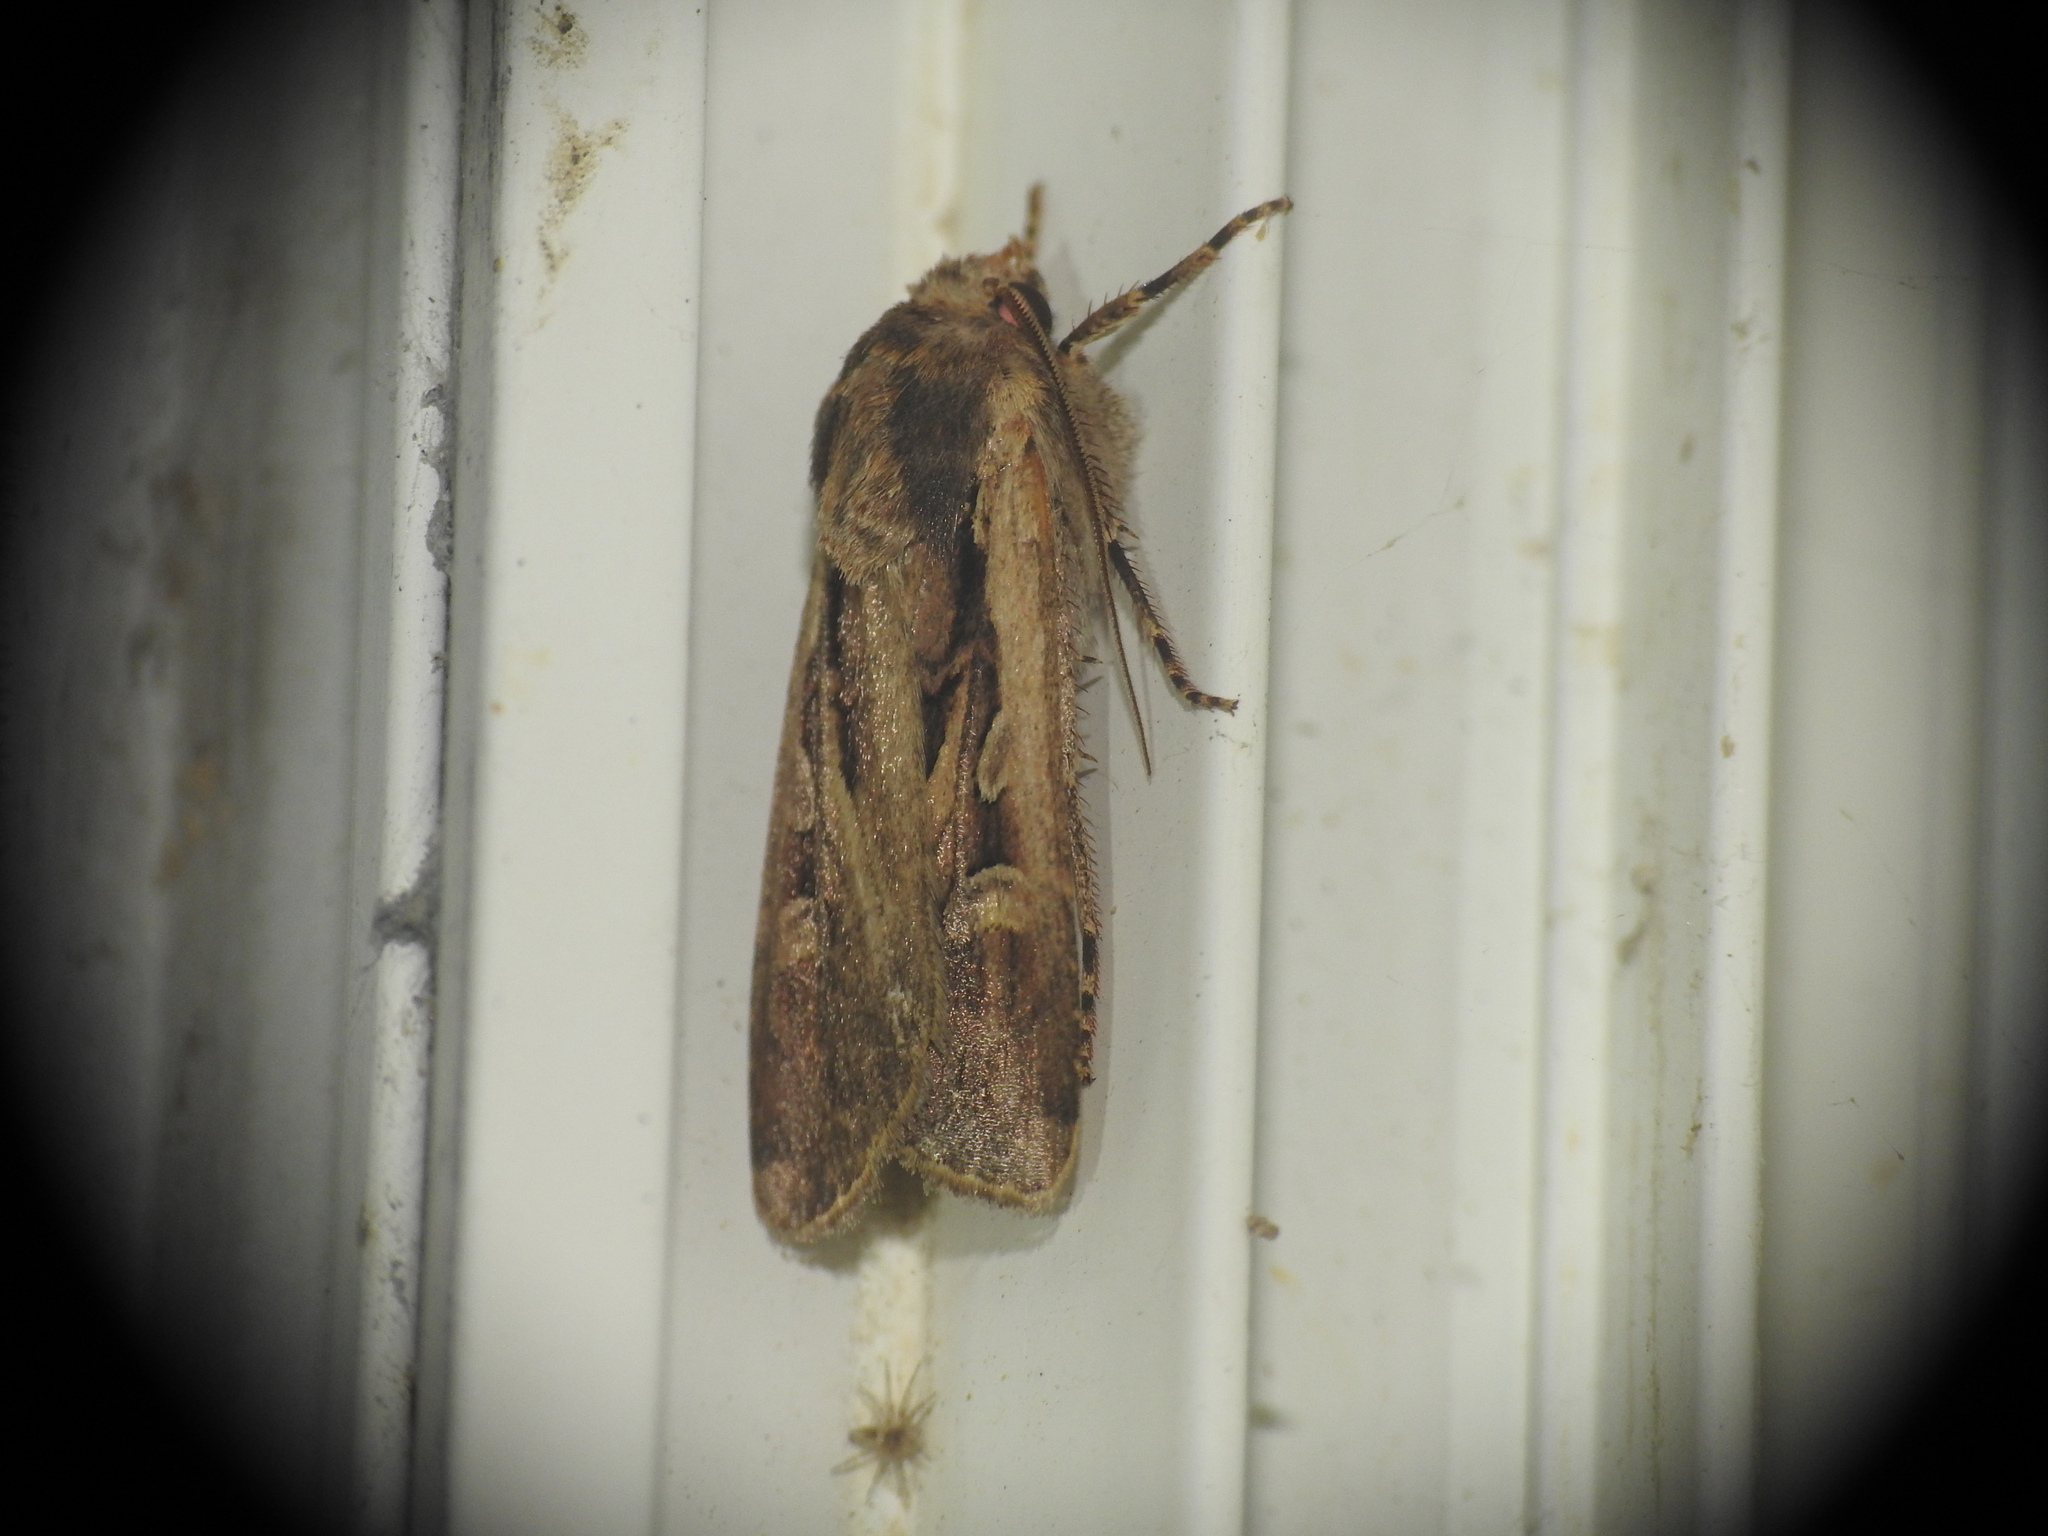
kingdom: Animalia
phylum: Arthropoda
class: Insecta
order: Lepidoptera
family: Noctuidae
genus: Euxoa
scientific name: Euxoa temera
